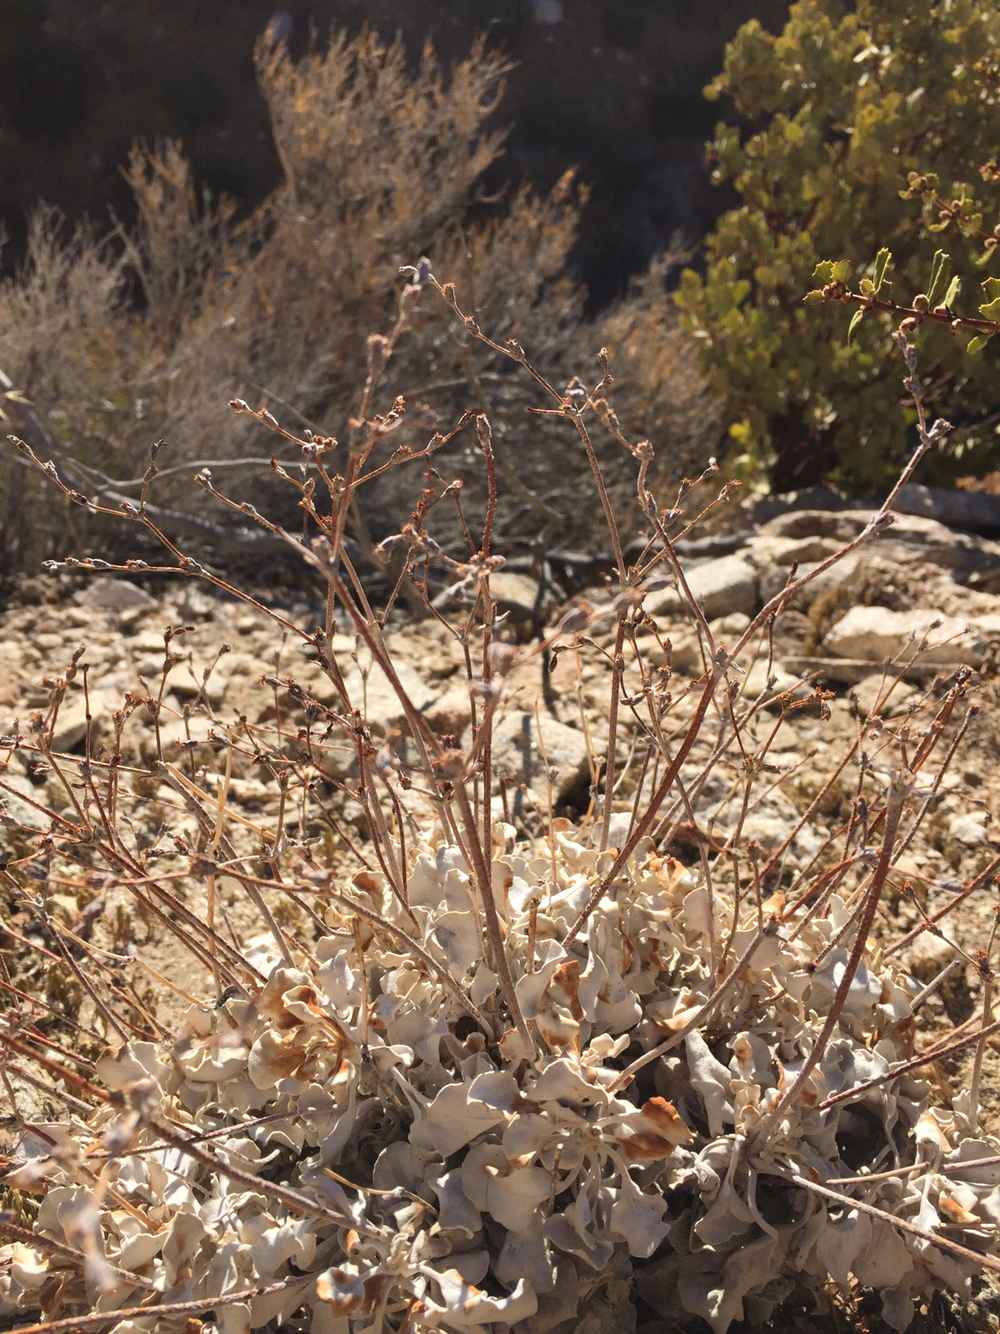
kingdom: Plantae
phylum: Tracheophyta
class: Magnoliopsida
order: Caryophyllales
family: Polygonaceae
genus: Eriogonum
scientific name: Eriogonum saxatile
